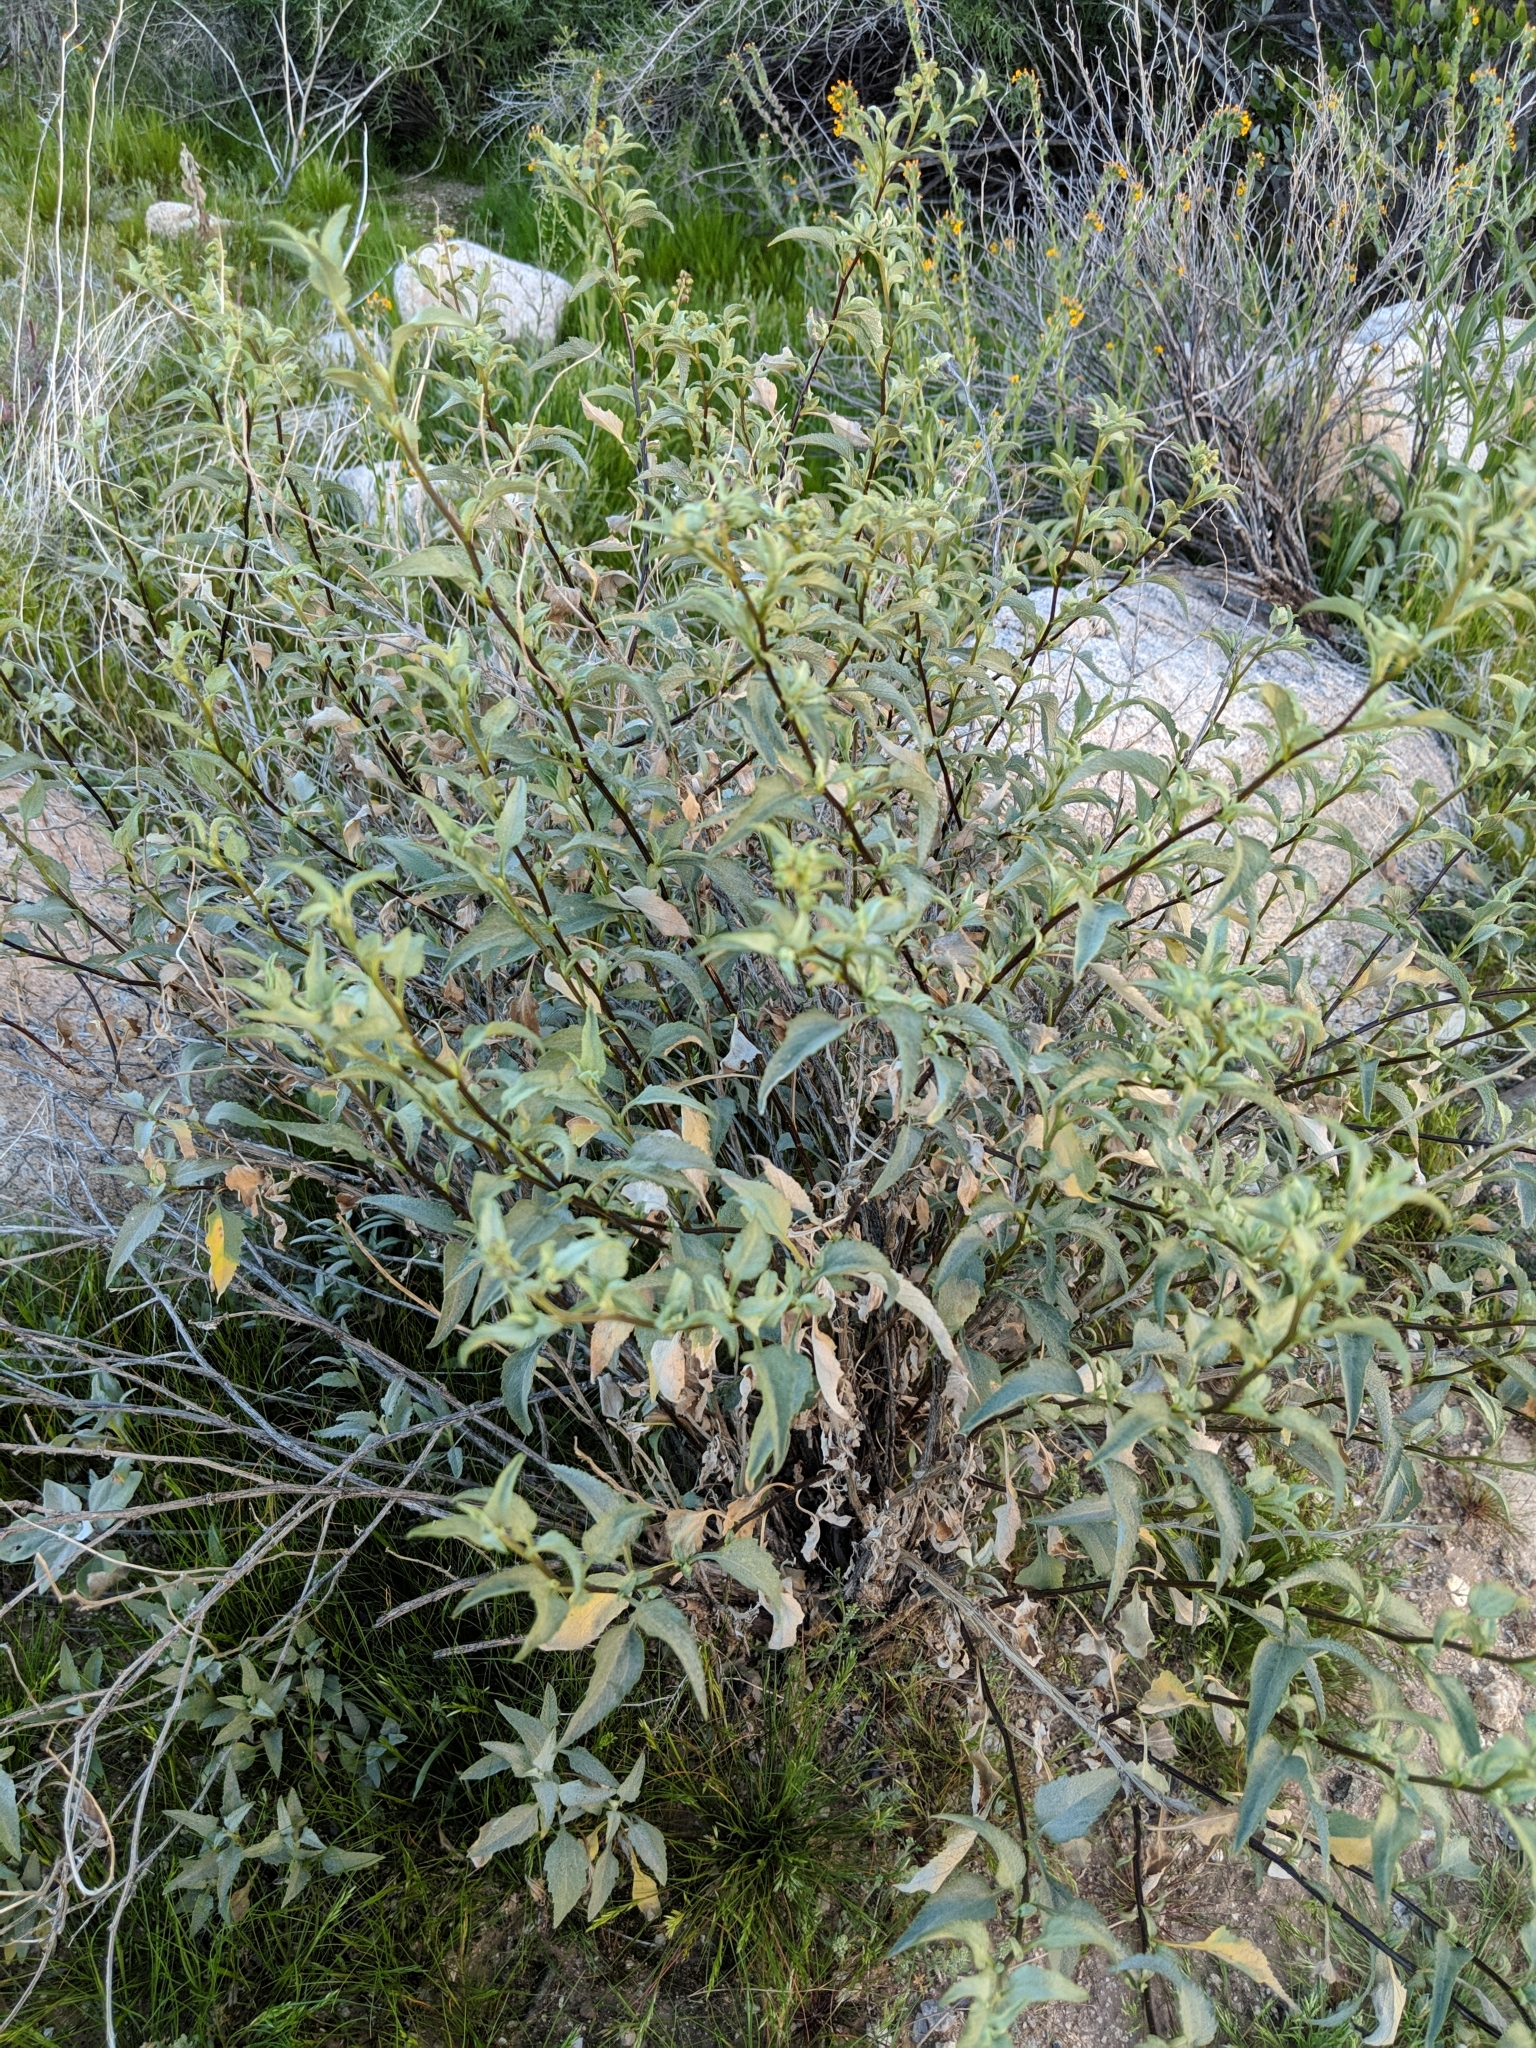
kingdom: Plantae
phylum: Tracheophyta
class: Magnoliopsida
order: Asterales
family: Asteraceae
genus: Ambrosia
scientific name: Ambrosia deltoidea
